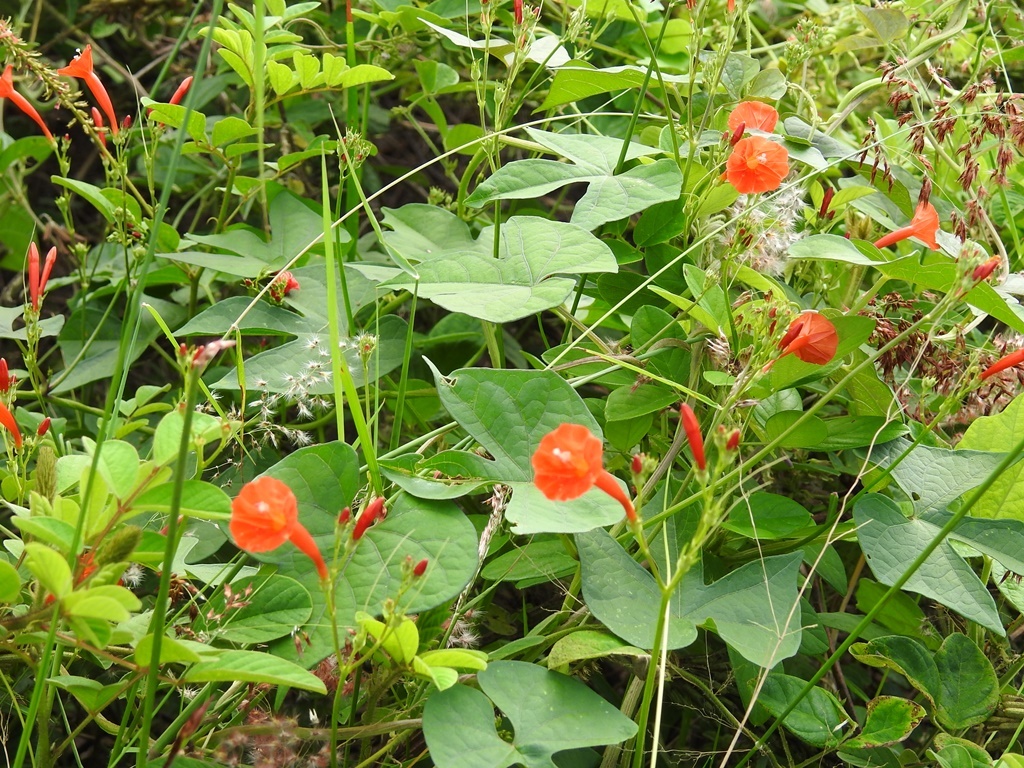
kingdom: Plantae
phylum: Tracheophyta
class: Magnoliopsida
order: Solanales
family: Convolvulaceae
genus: Ipomoea
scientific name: Ipomoea hederifolia
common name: Ivy-leaf morning-glory
